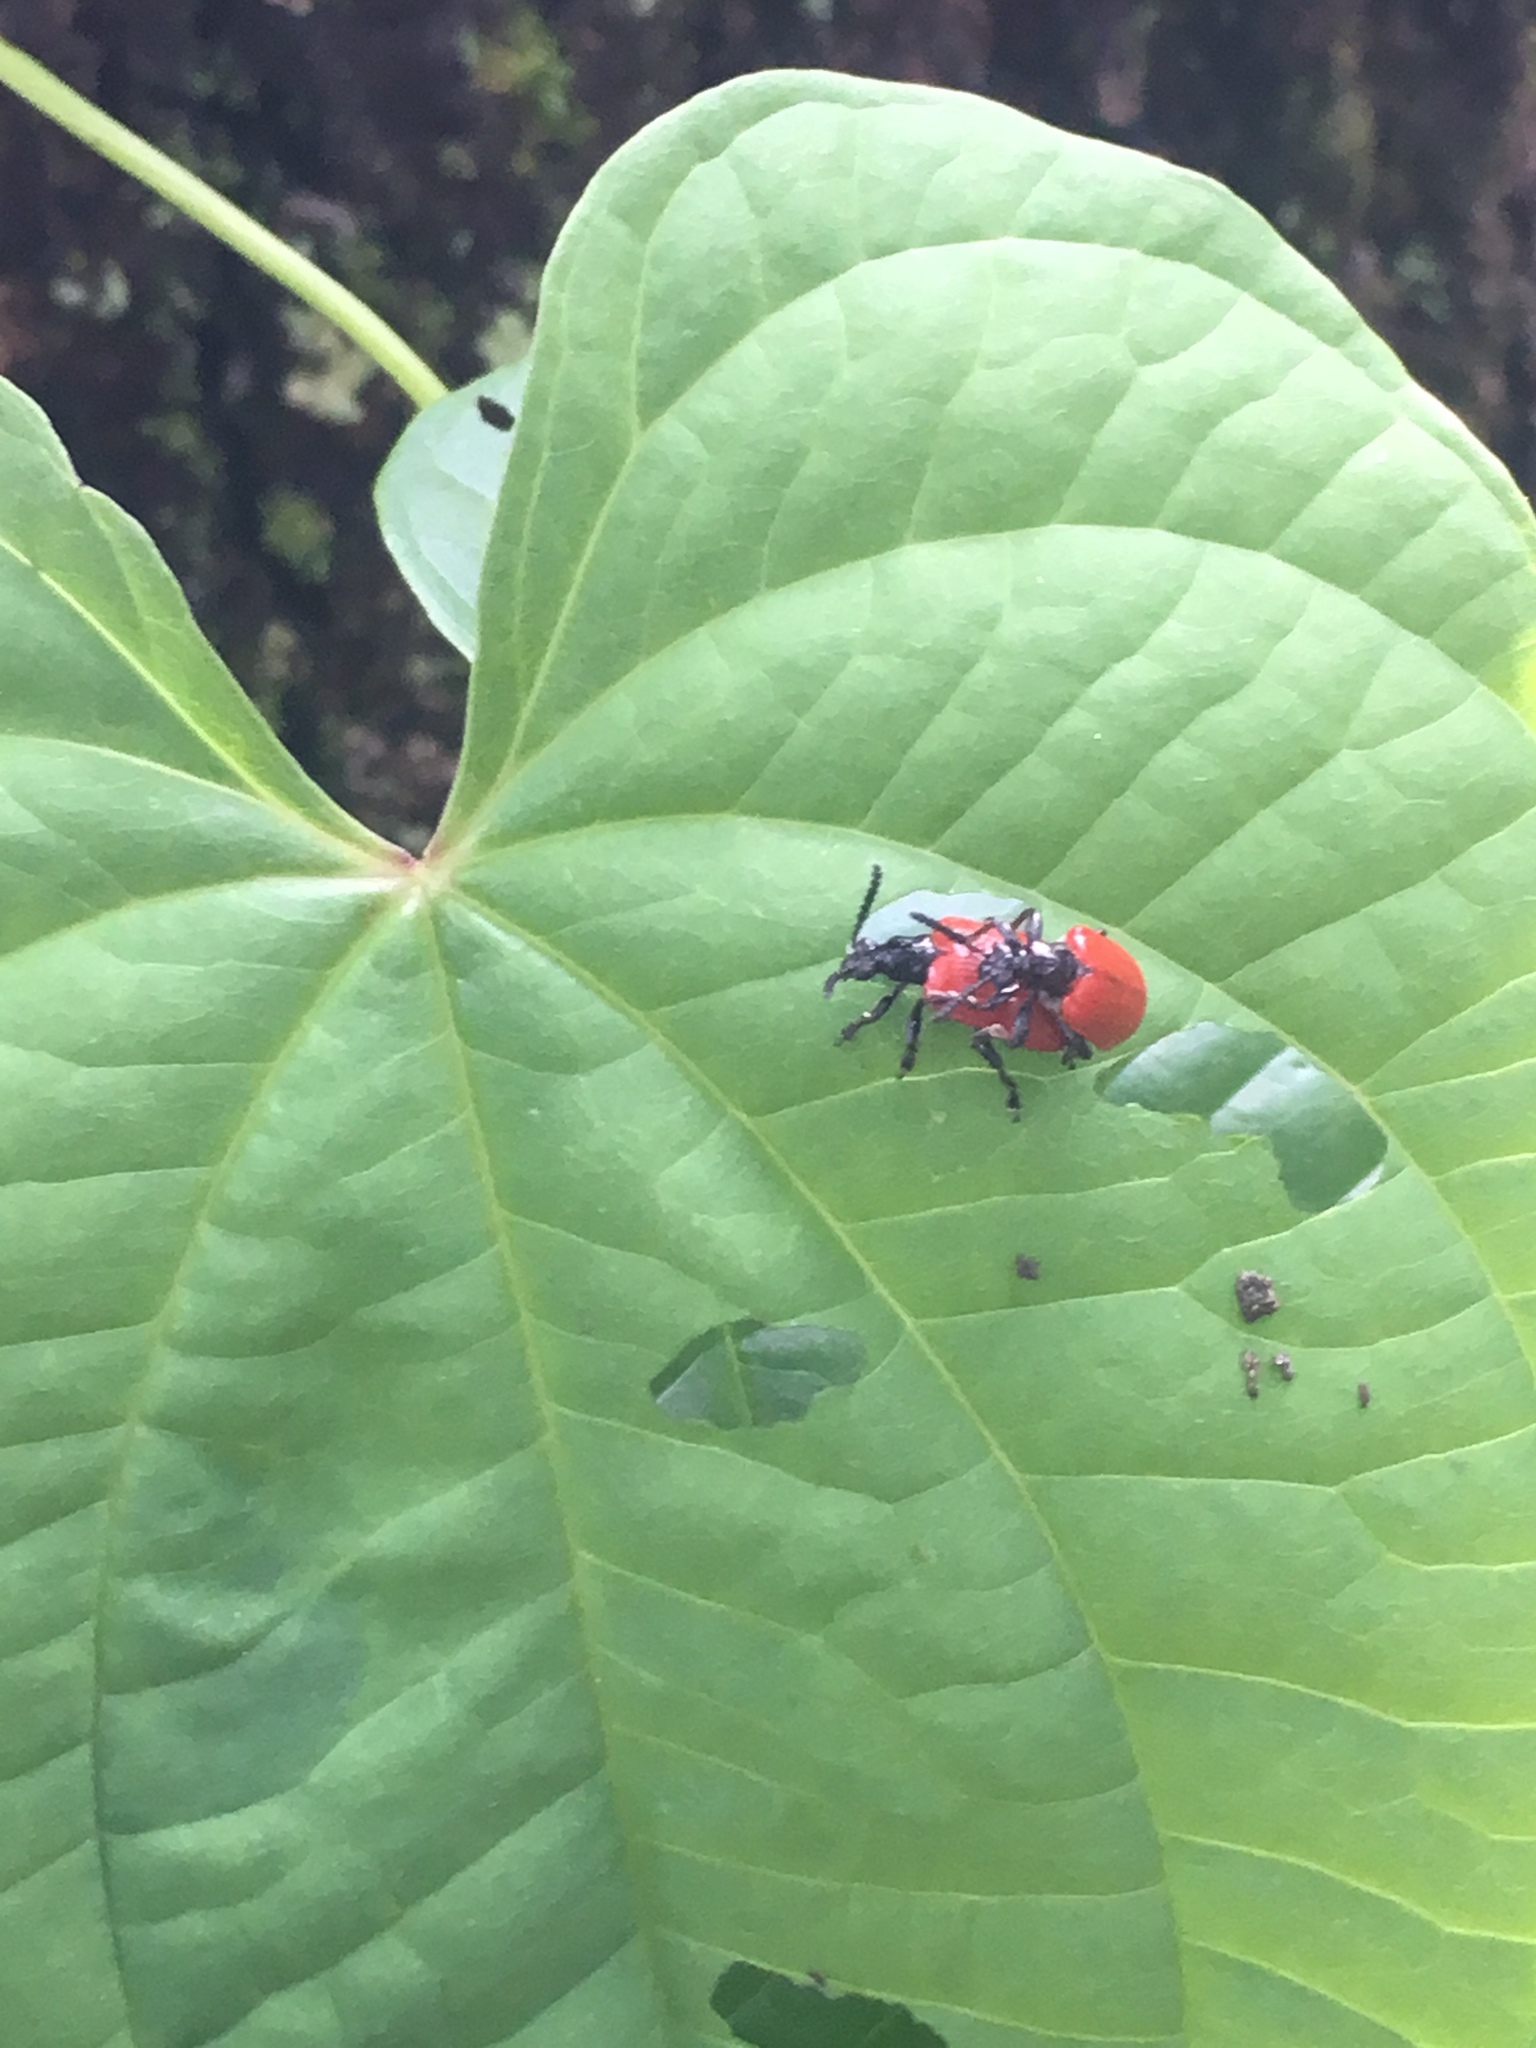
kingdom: Animalia
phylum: Arthropoda
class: Insecta
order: Coleoptera
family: Chrysomelidae
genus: Lilioceris
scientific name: Lilioceris cheni
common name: Leaf beetle
